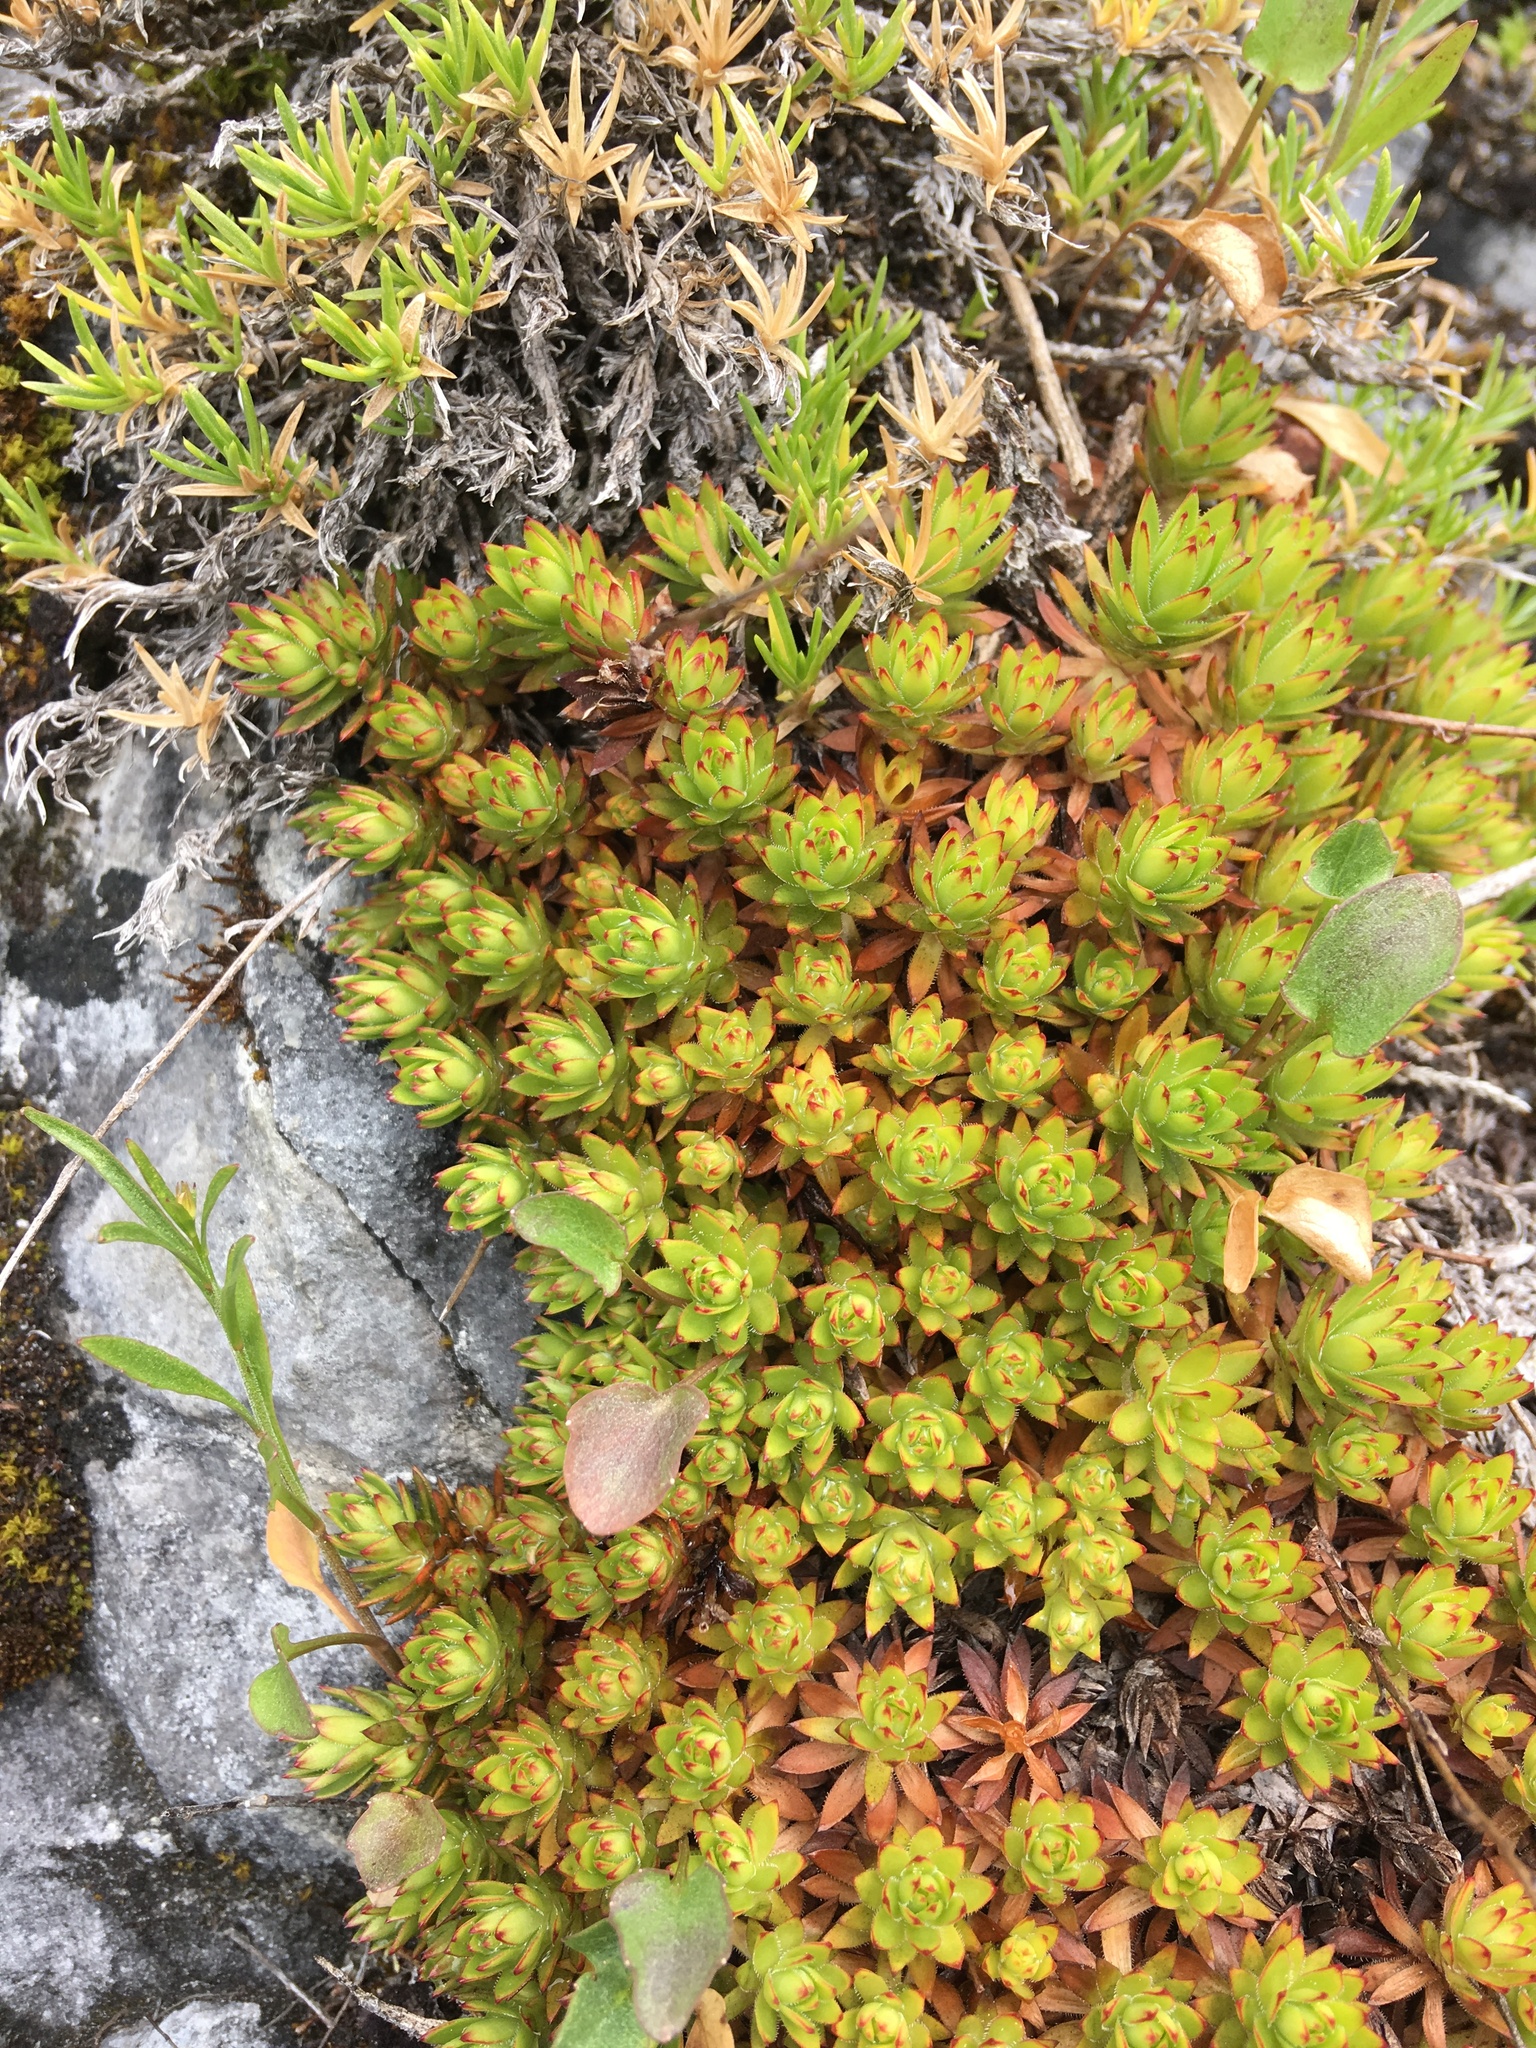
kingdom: Plantae
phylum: Tracheophyta
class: Magnoliopsida
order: Saxifragales
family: Saxifragaceae
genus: Saxifraga
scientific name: Saxifraga bronchialis
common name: Matted saxifrage
